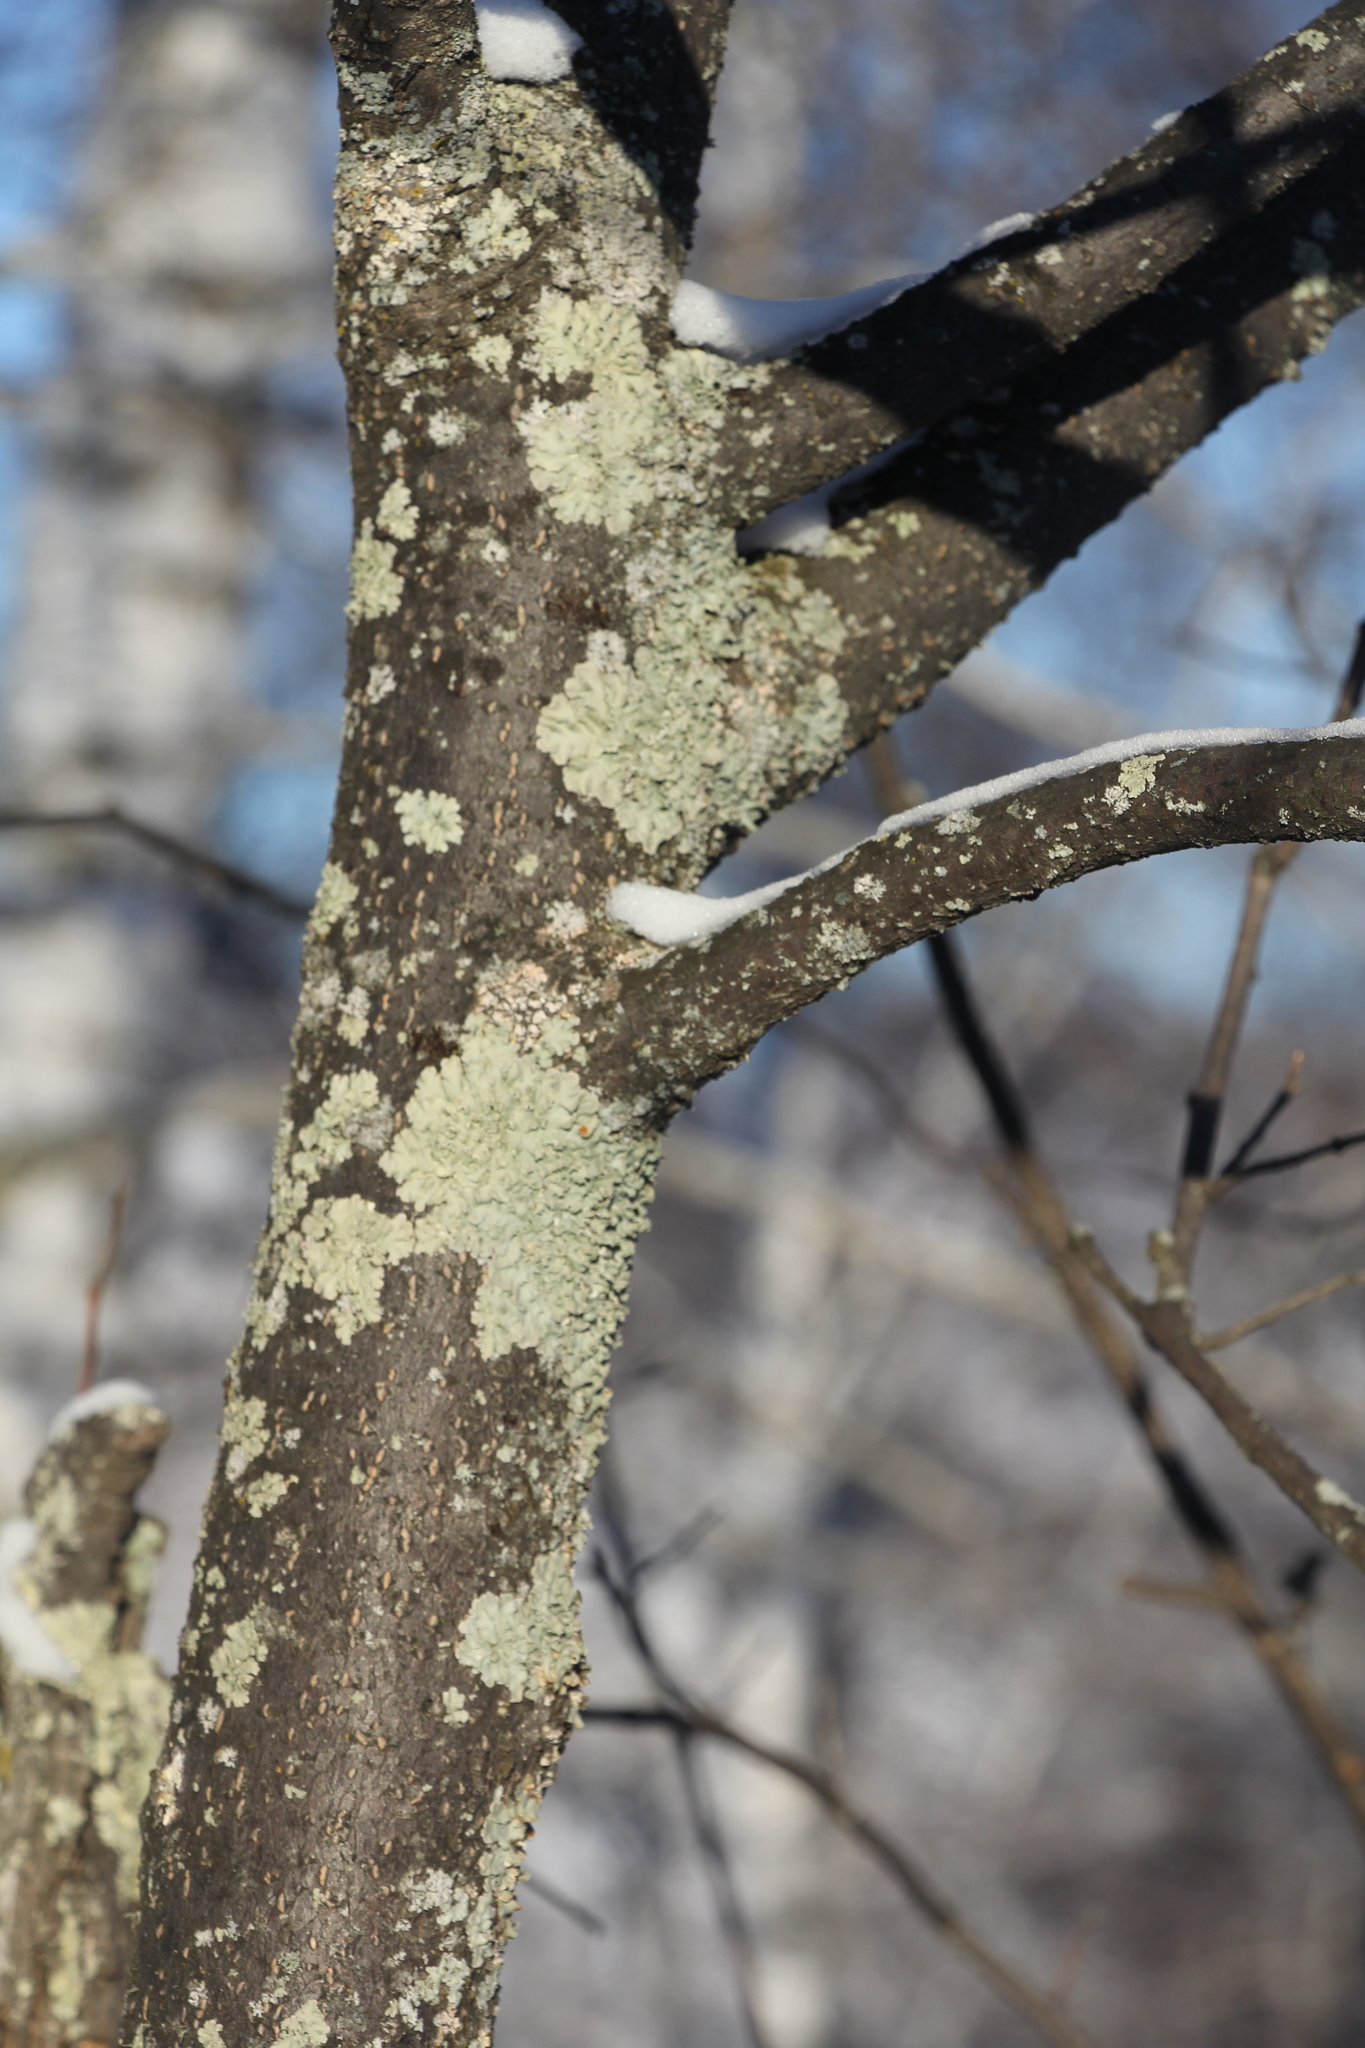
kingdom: Plantae
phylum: Tracheophyta
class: Magnoliopsida
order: Rosales
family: Rosaceae
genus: Prunus
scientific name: Prunus padus
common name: Bird cherry
